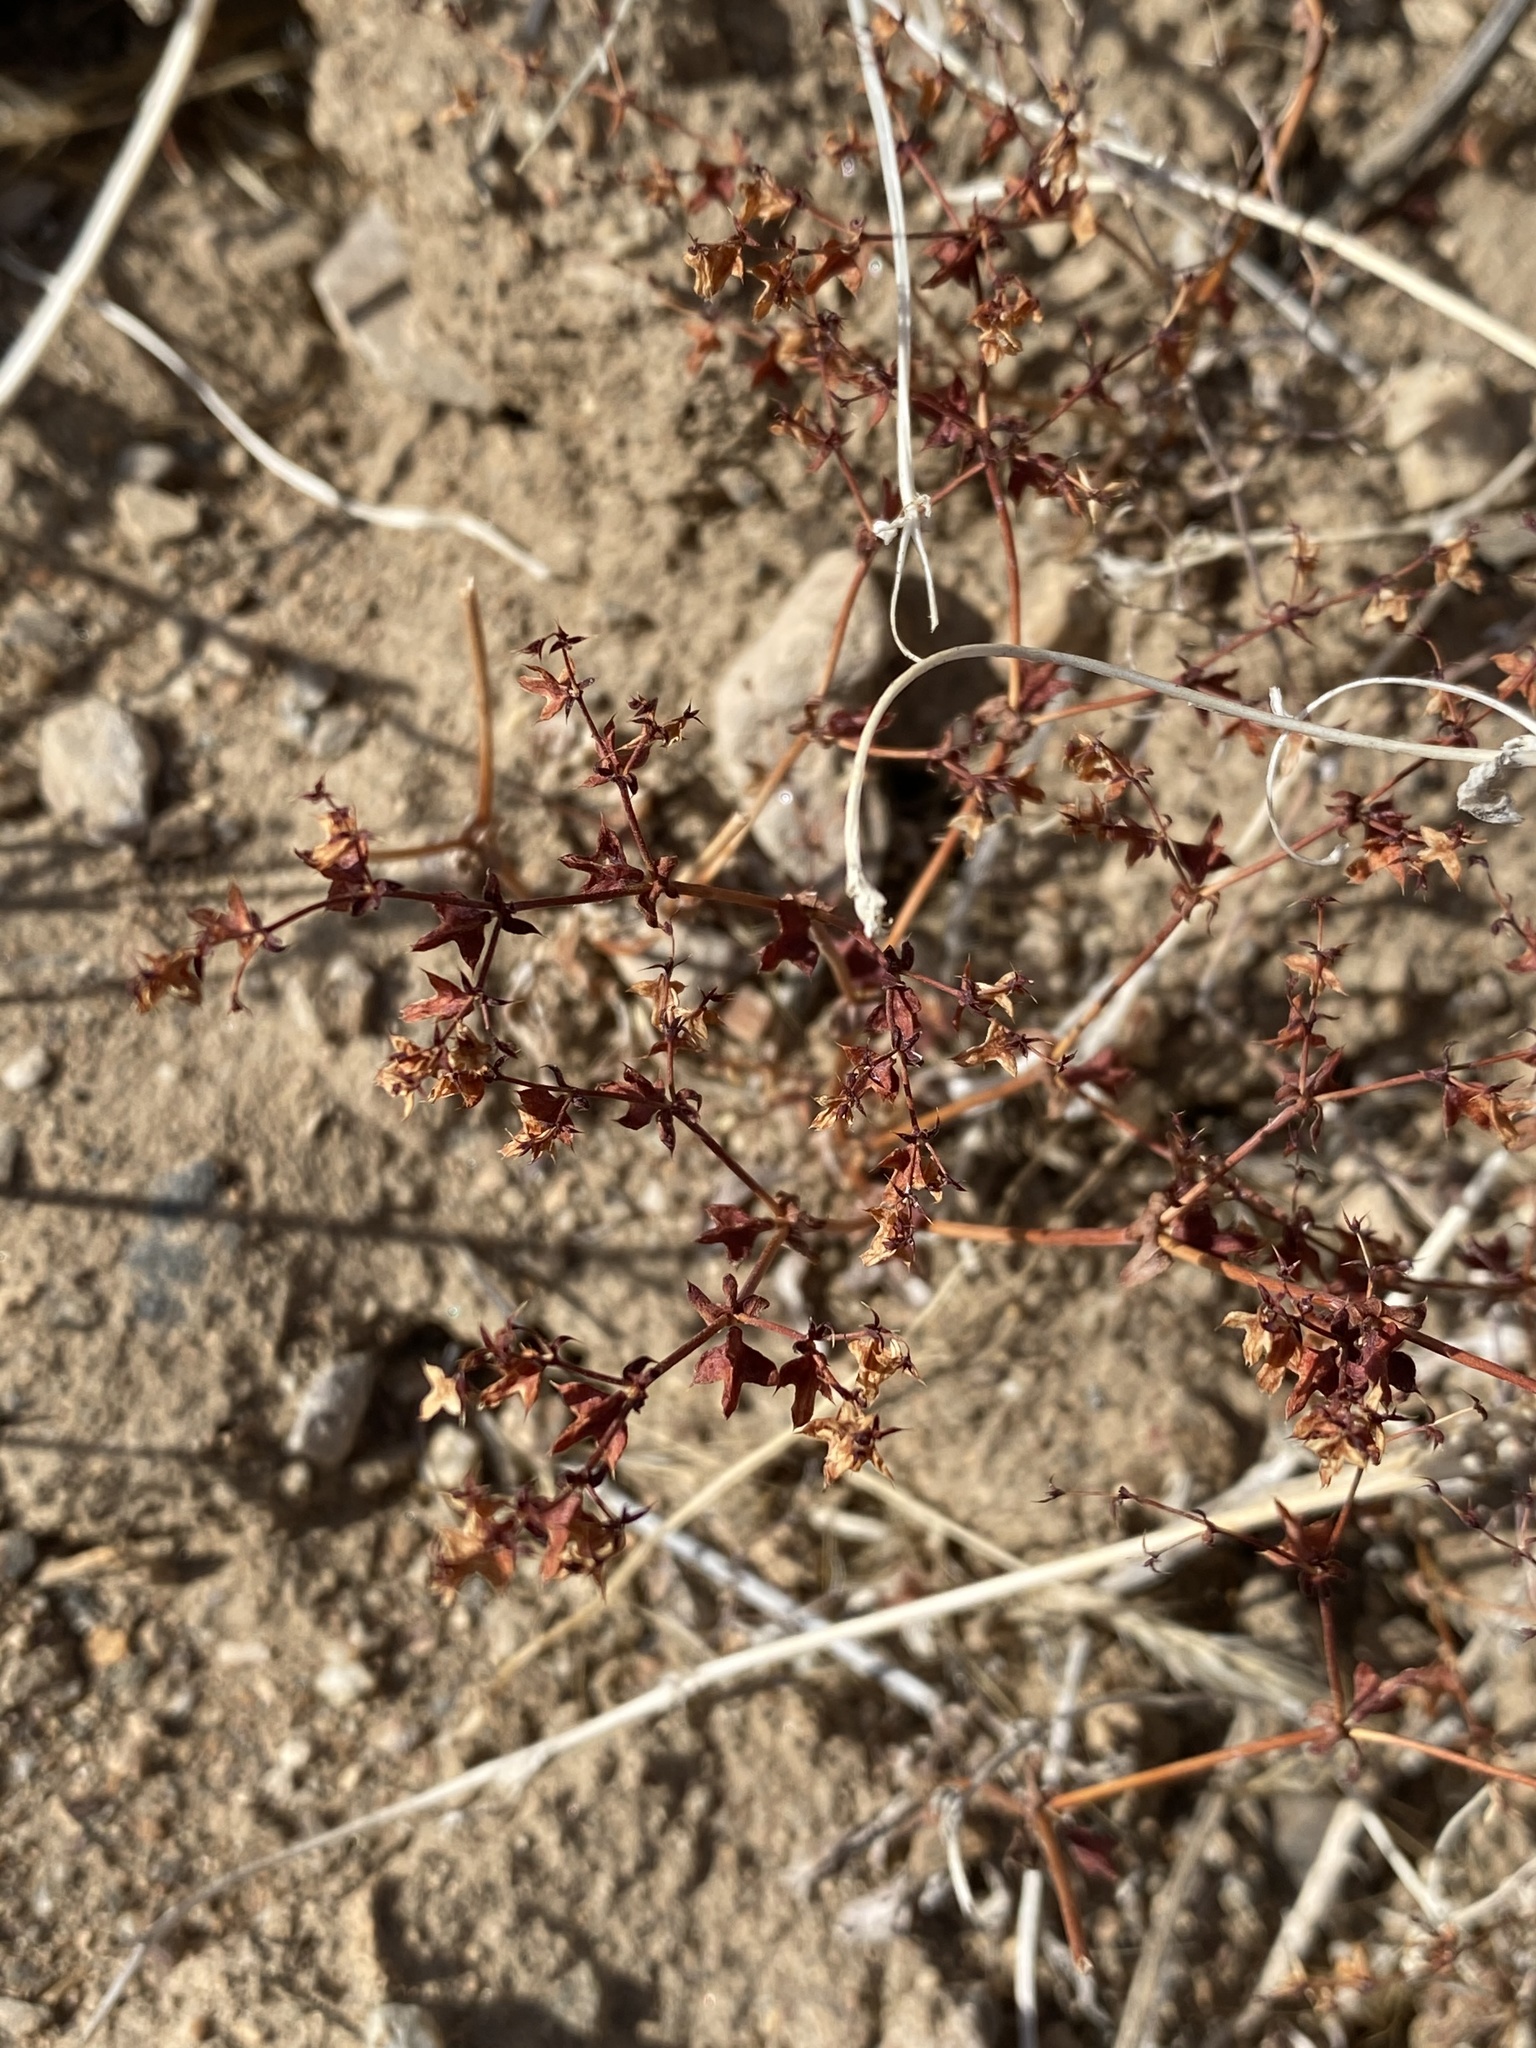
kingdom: Plantae
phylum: Tracheophyta
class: Magnoliopsida
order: Caryophyllales
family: Polygonaceae
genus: Centrostegia
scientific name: Centrostegia thurberi
